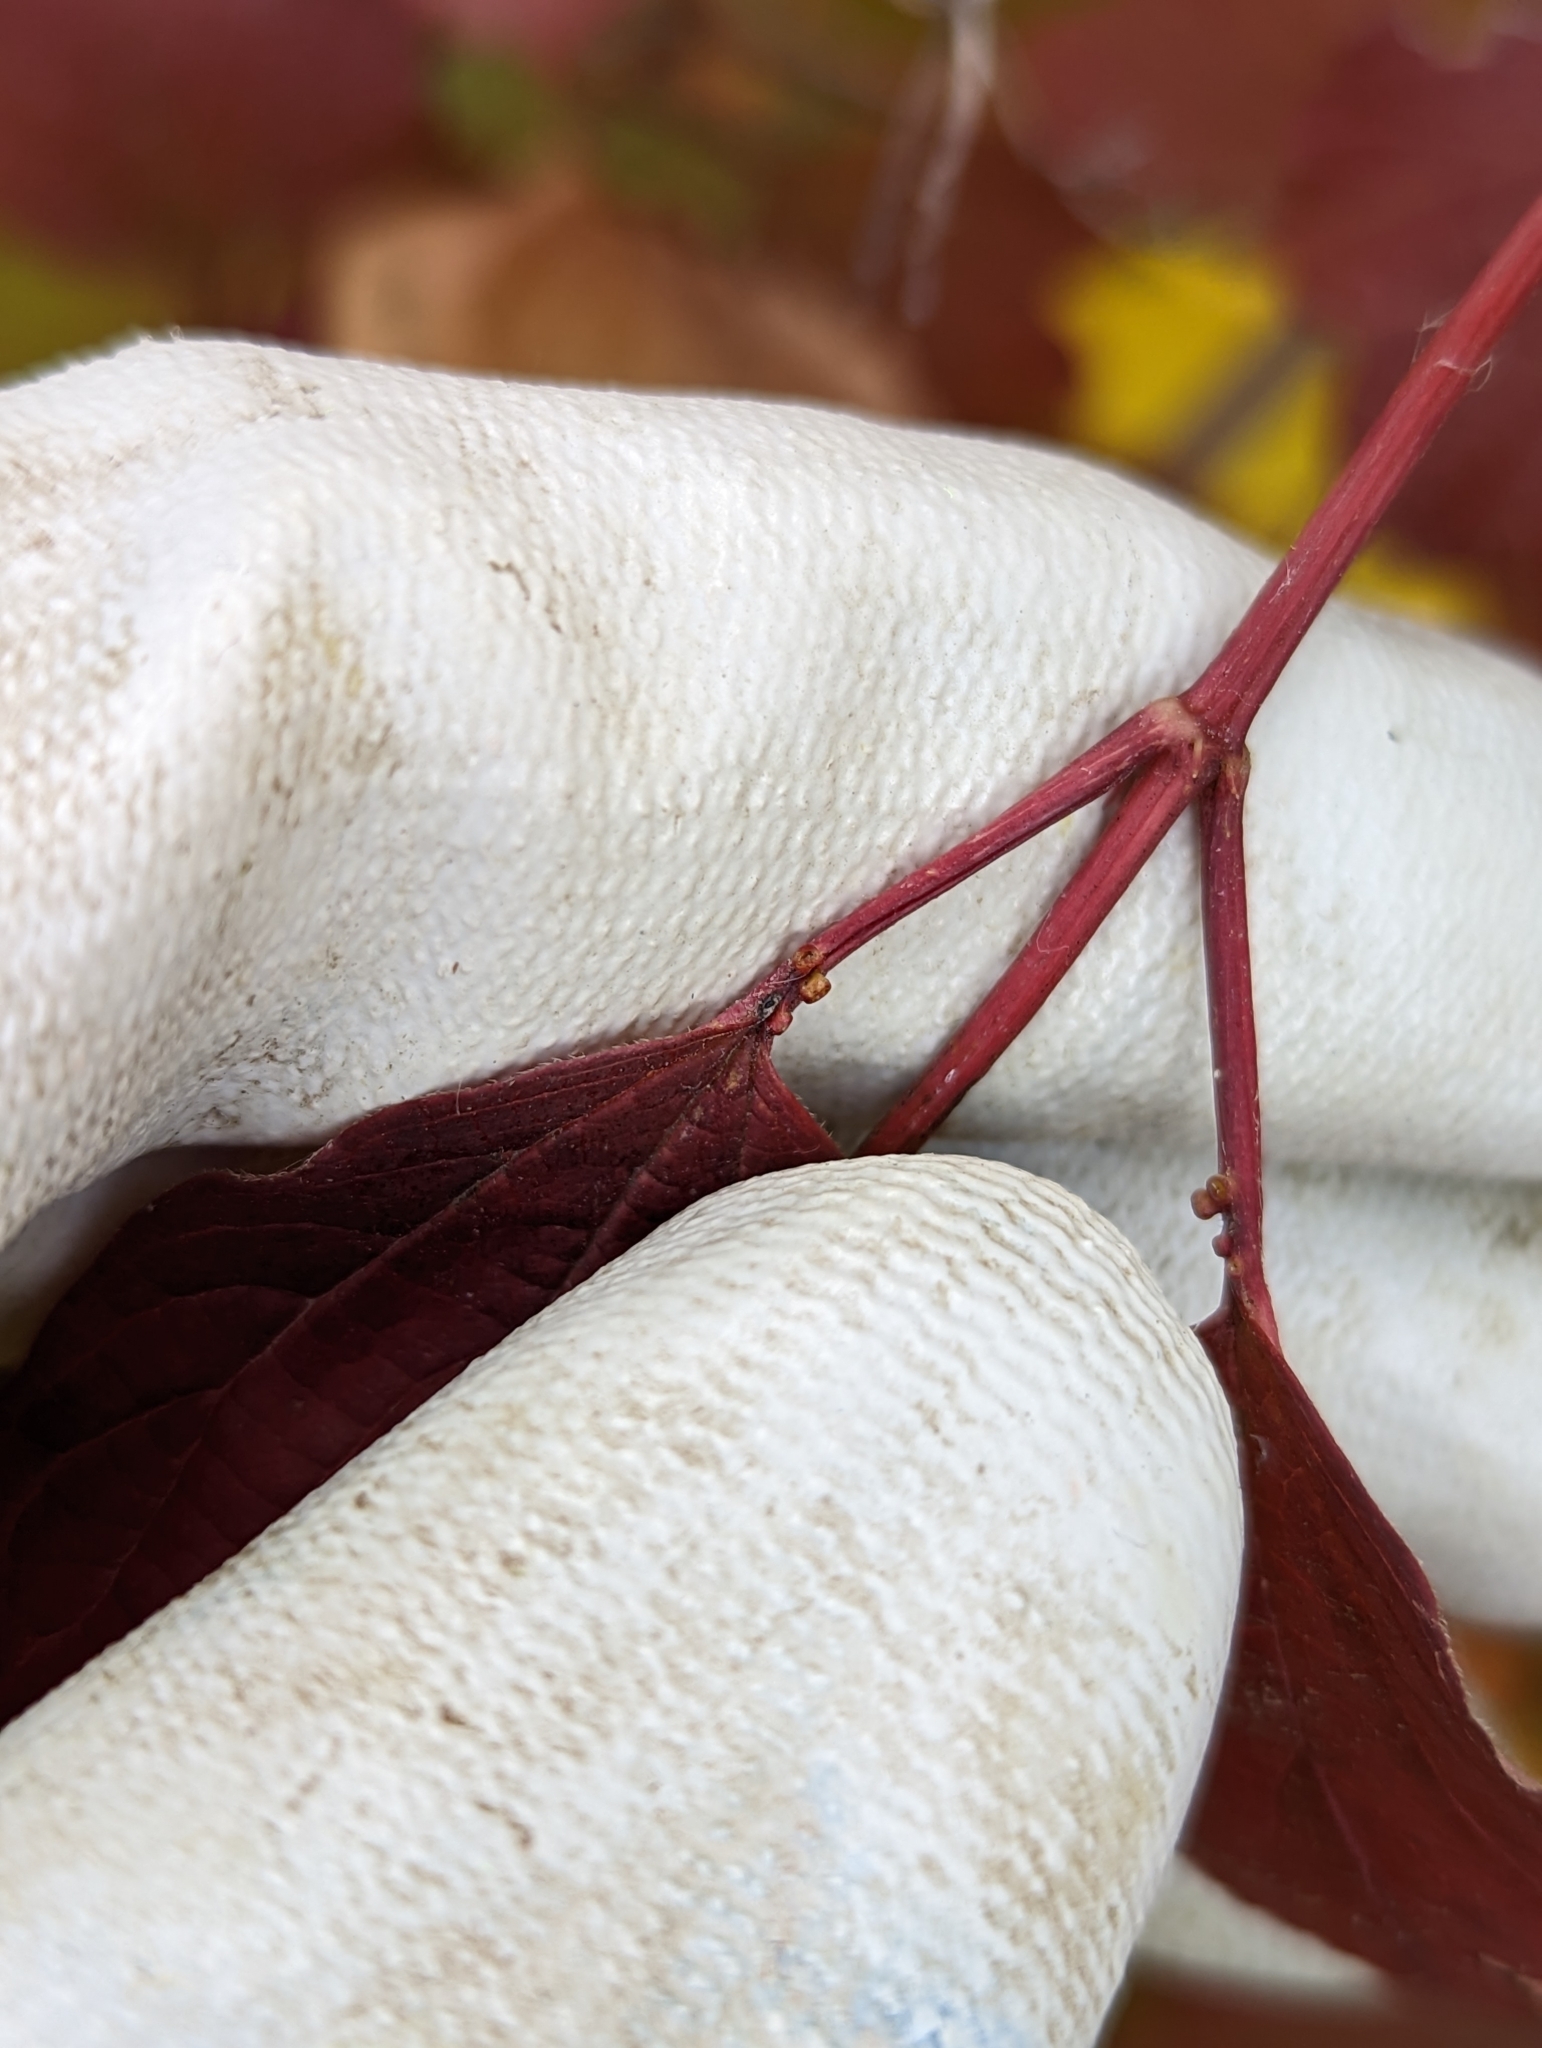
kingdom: Plantae
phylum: Tracheophyta
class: Magnoliopsida
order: Dipsacales
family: Viburnaceae
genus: Viburnum
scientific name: Viburnum opulus
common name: Guelder-rose
